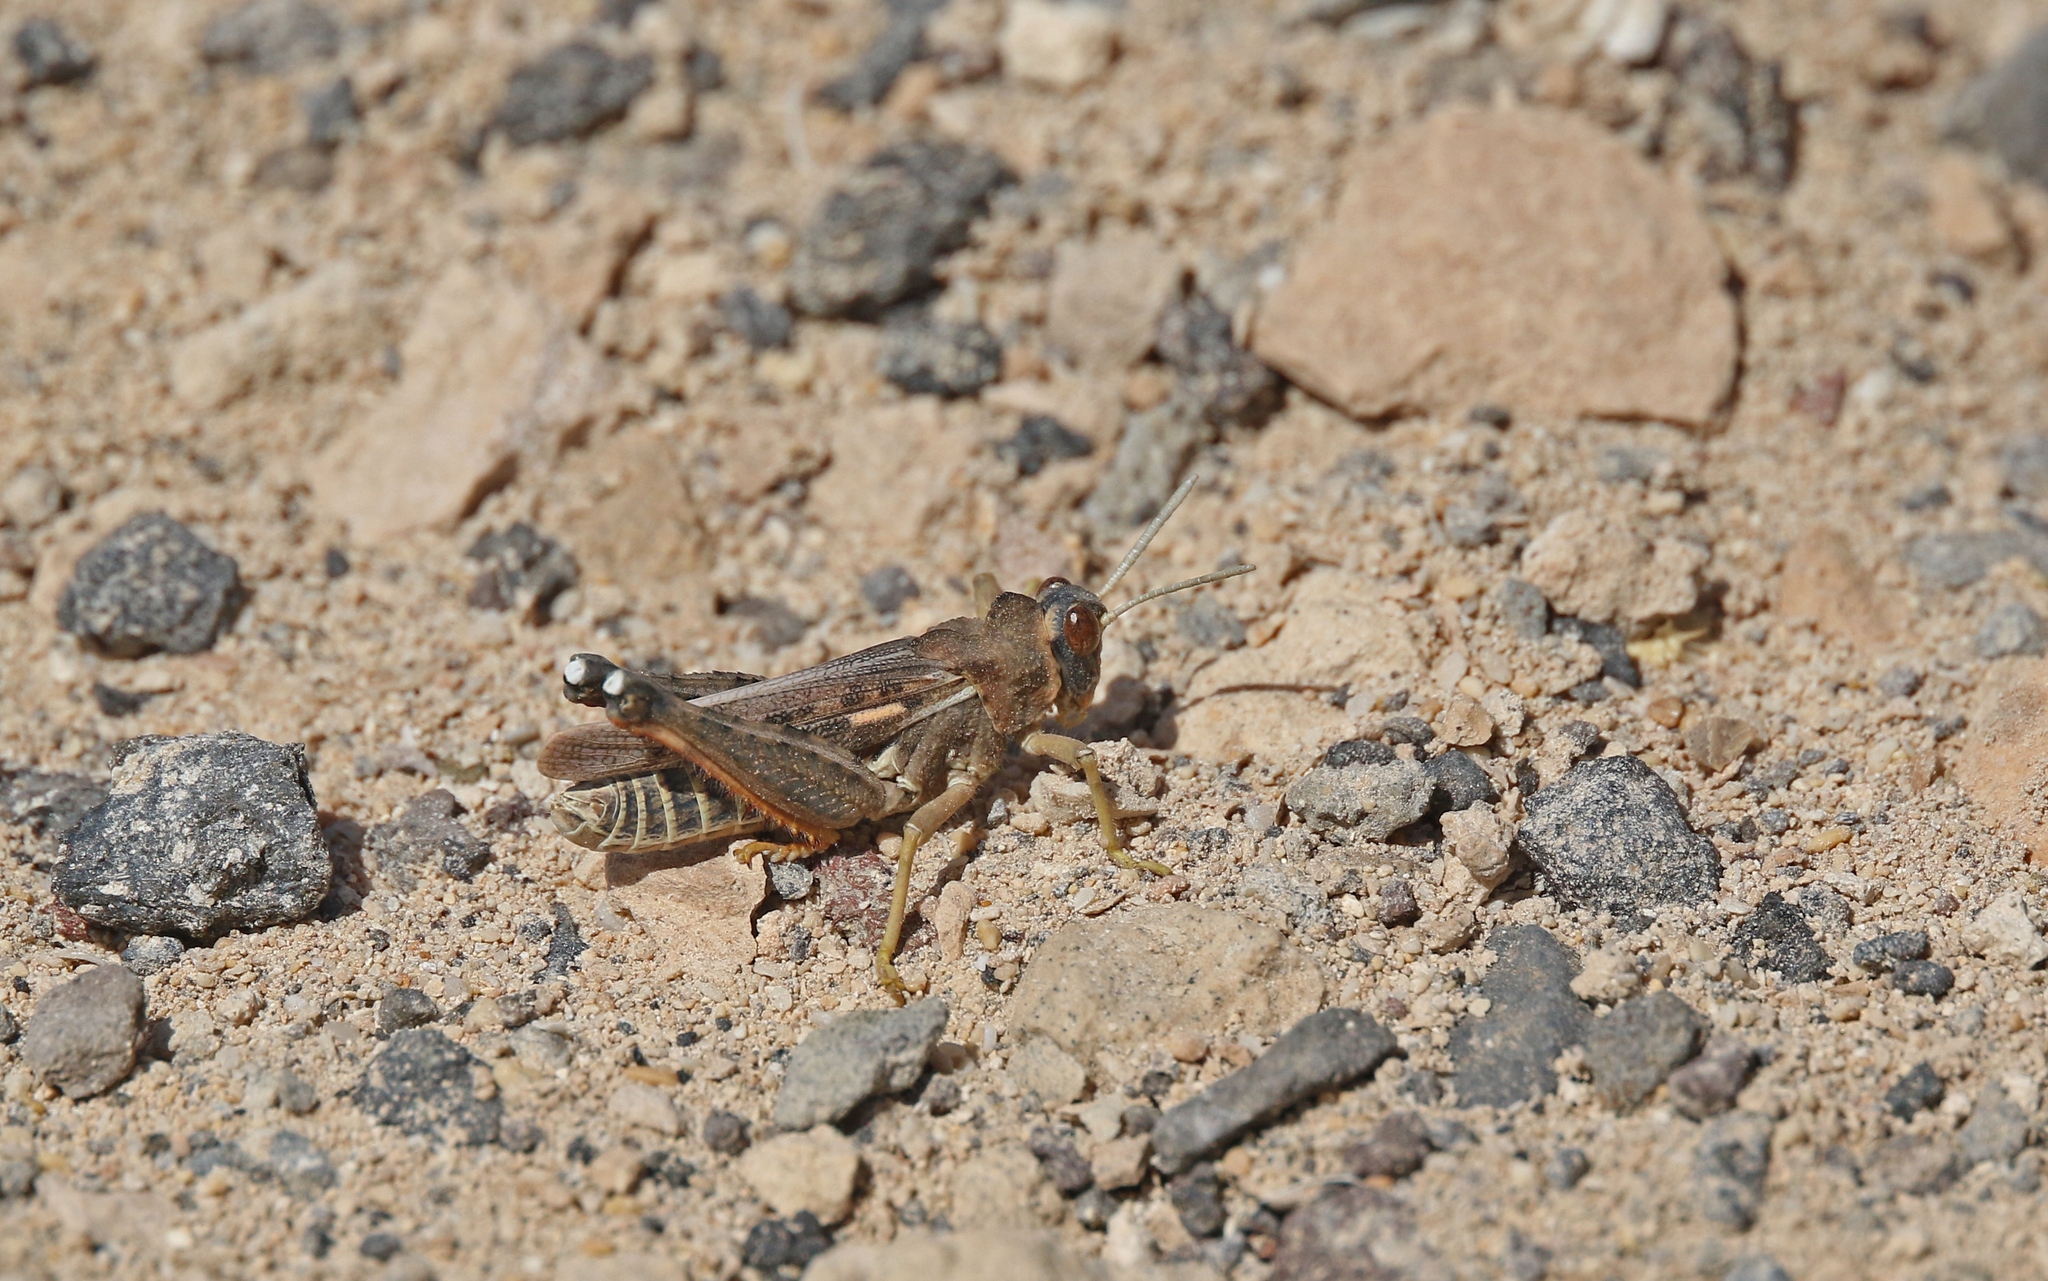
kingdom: Animalia
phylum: Arthropoda
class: Insecta
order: Orthoptera
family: Dericorythidae
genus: Dericorys
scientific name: Dericorys lobata
